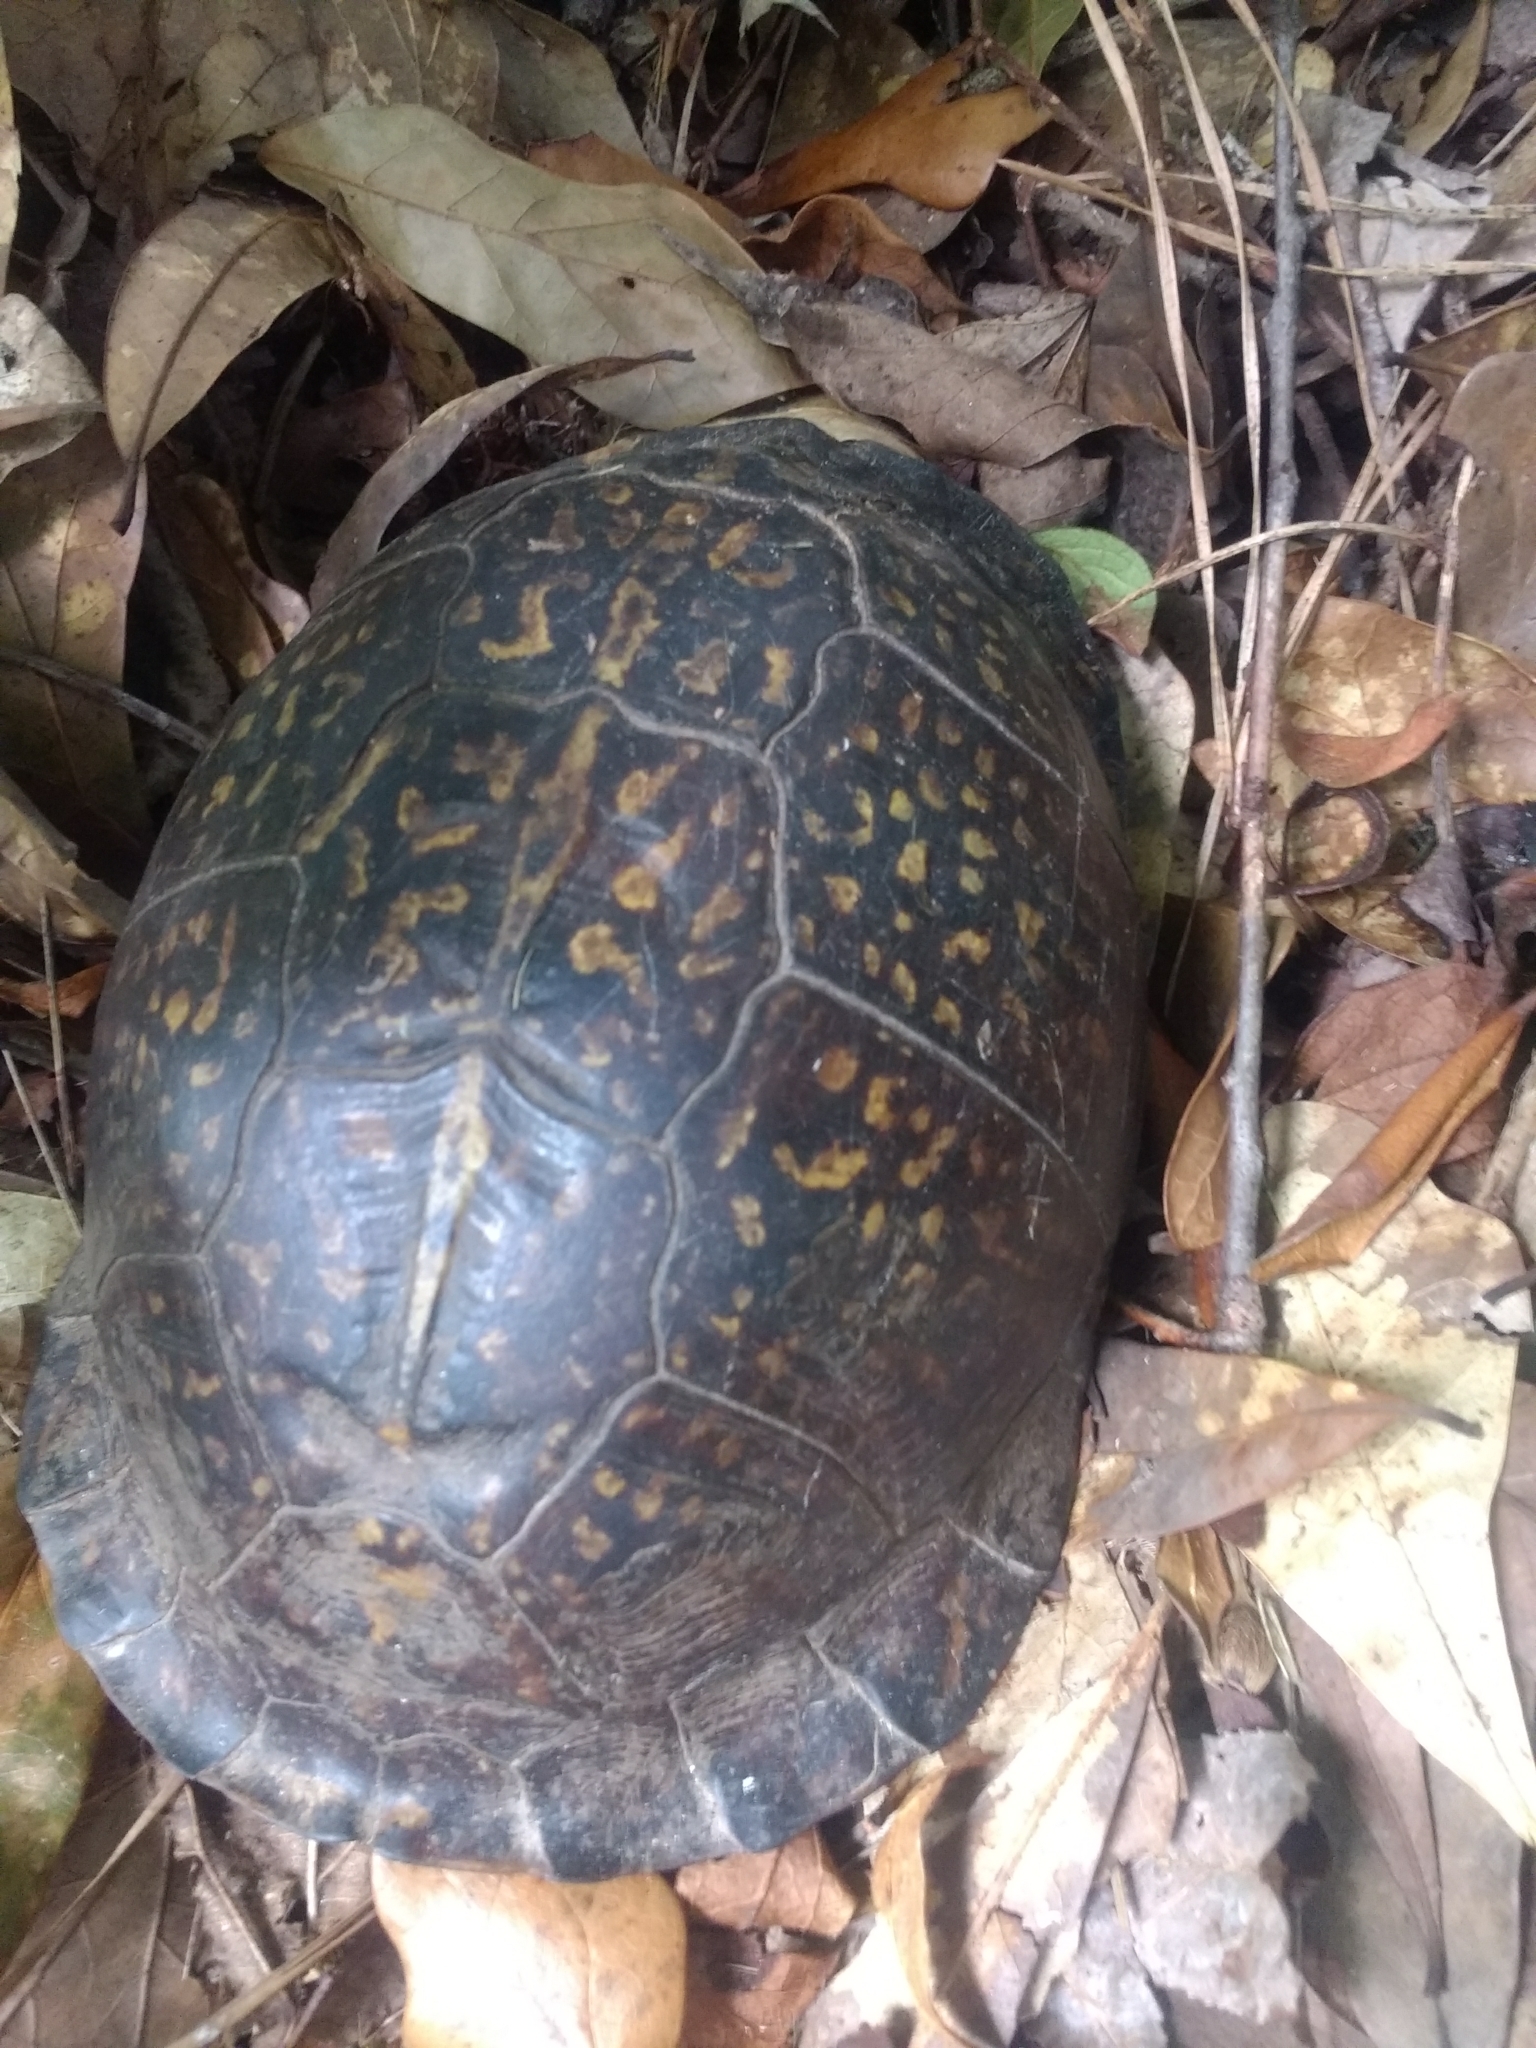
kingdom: Animalia
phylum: Chordata
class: Testudines
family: Emydidae
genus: Terrapene
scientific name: Terrapene carolina
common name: Common box turtle
